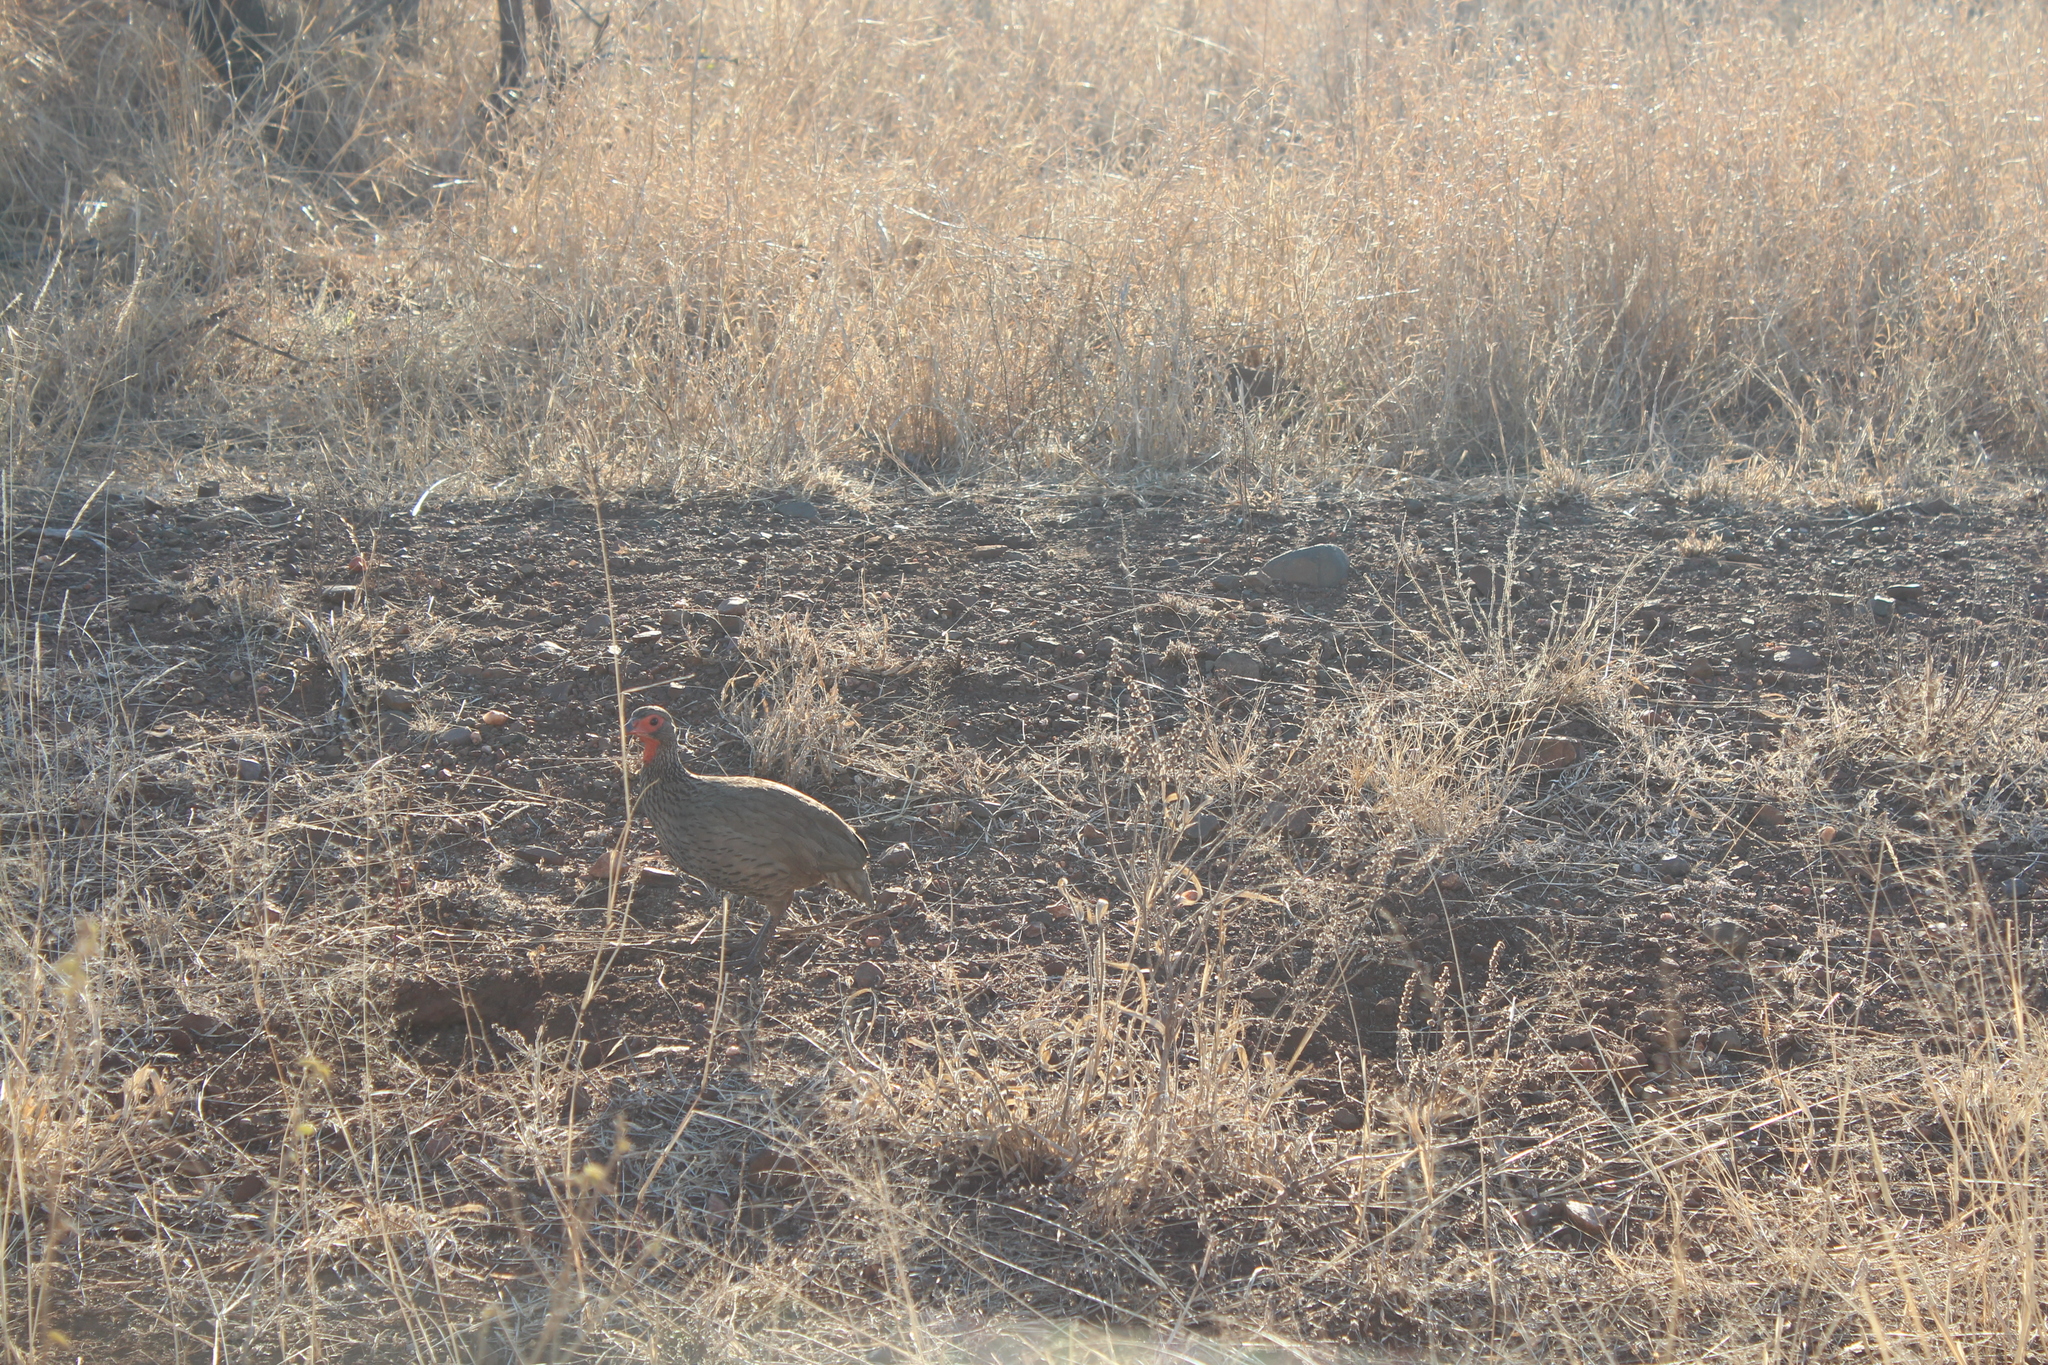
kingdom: Animalia
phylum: Chordata
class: Aves
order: Galliformes
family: Phasianidae
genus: Pternistis
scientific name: Pternistis swainsonii
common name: Swainson's spurfowl
